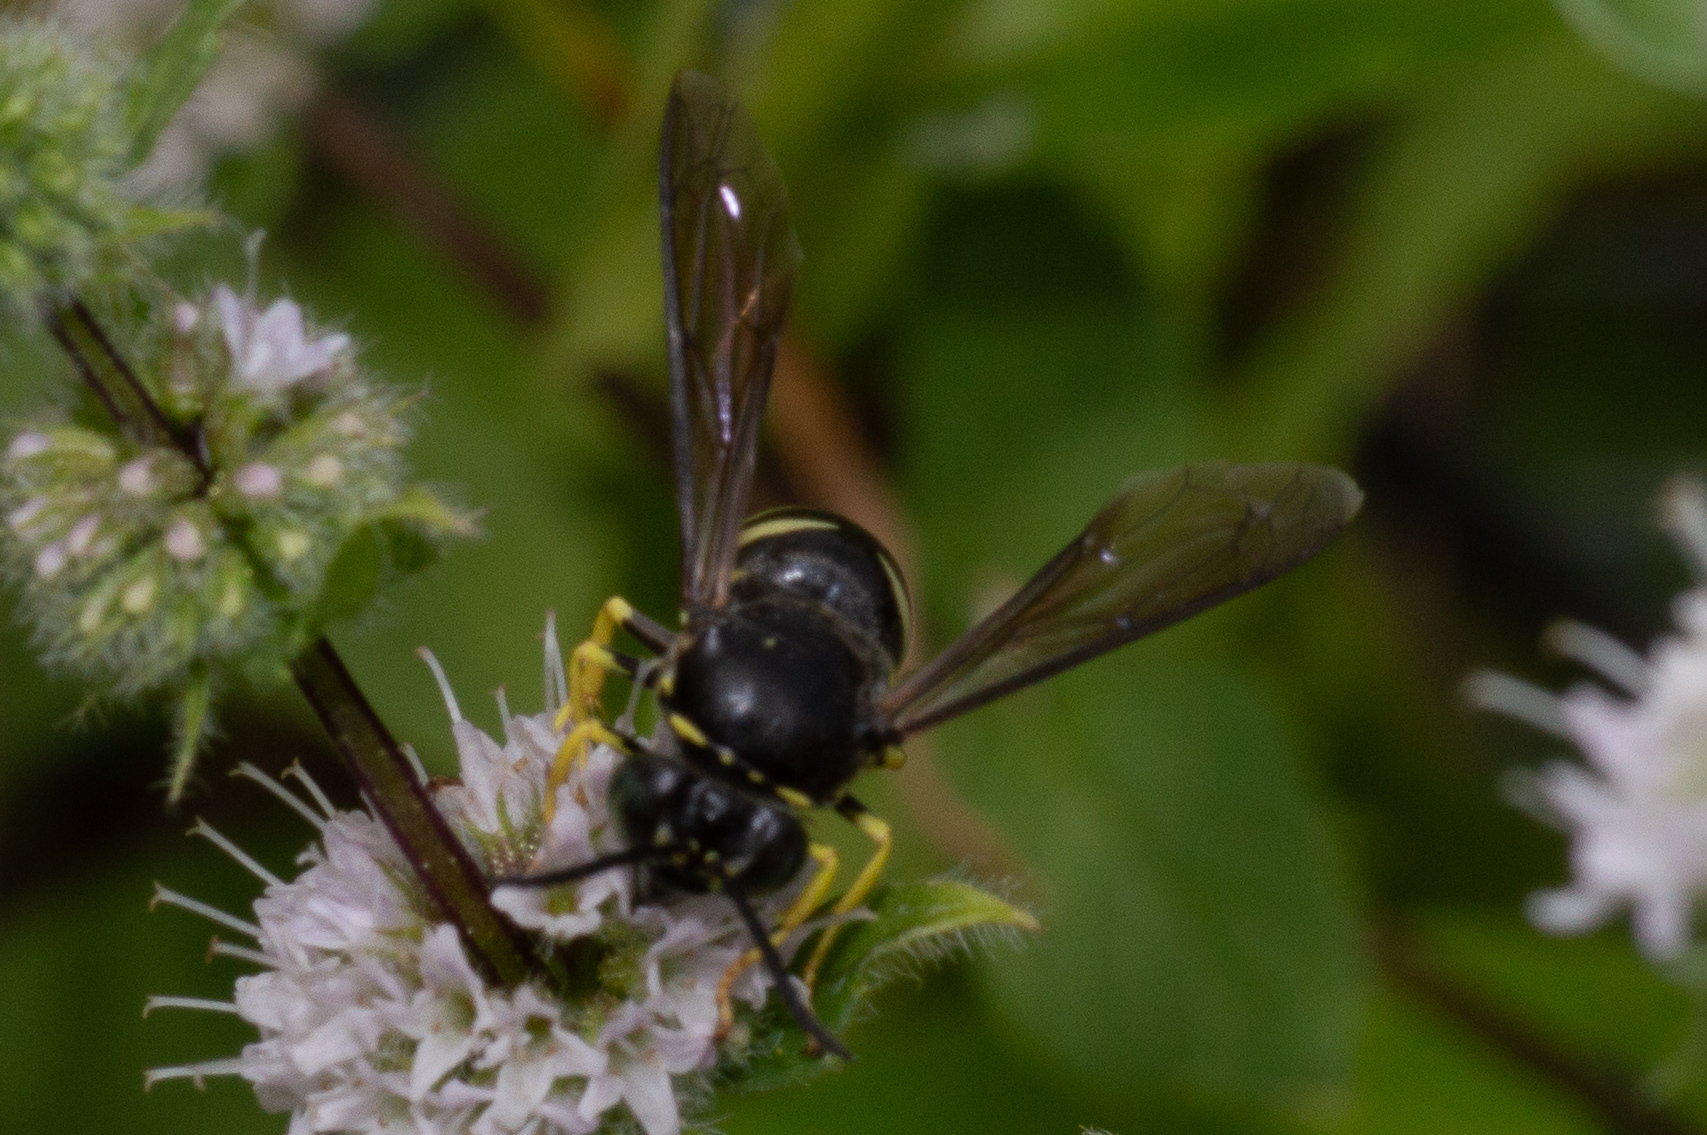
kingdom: Animalia
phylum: Arthropoda
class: Insecta
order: Hymenoptera
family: Crabronidae
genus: Bicyrtes
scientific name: Bicyrtes quadrifasciatus
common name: Four-banded stink bug hunter wasp
